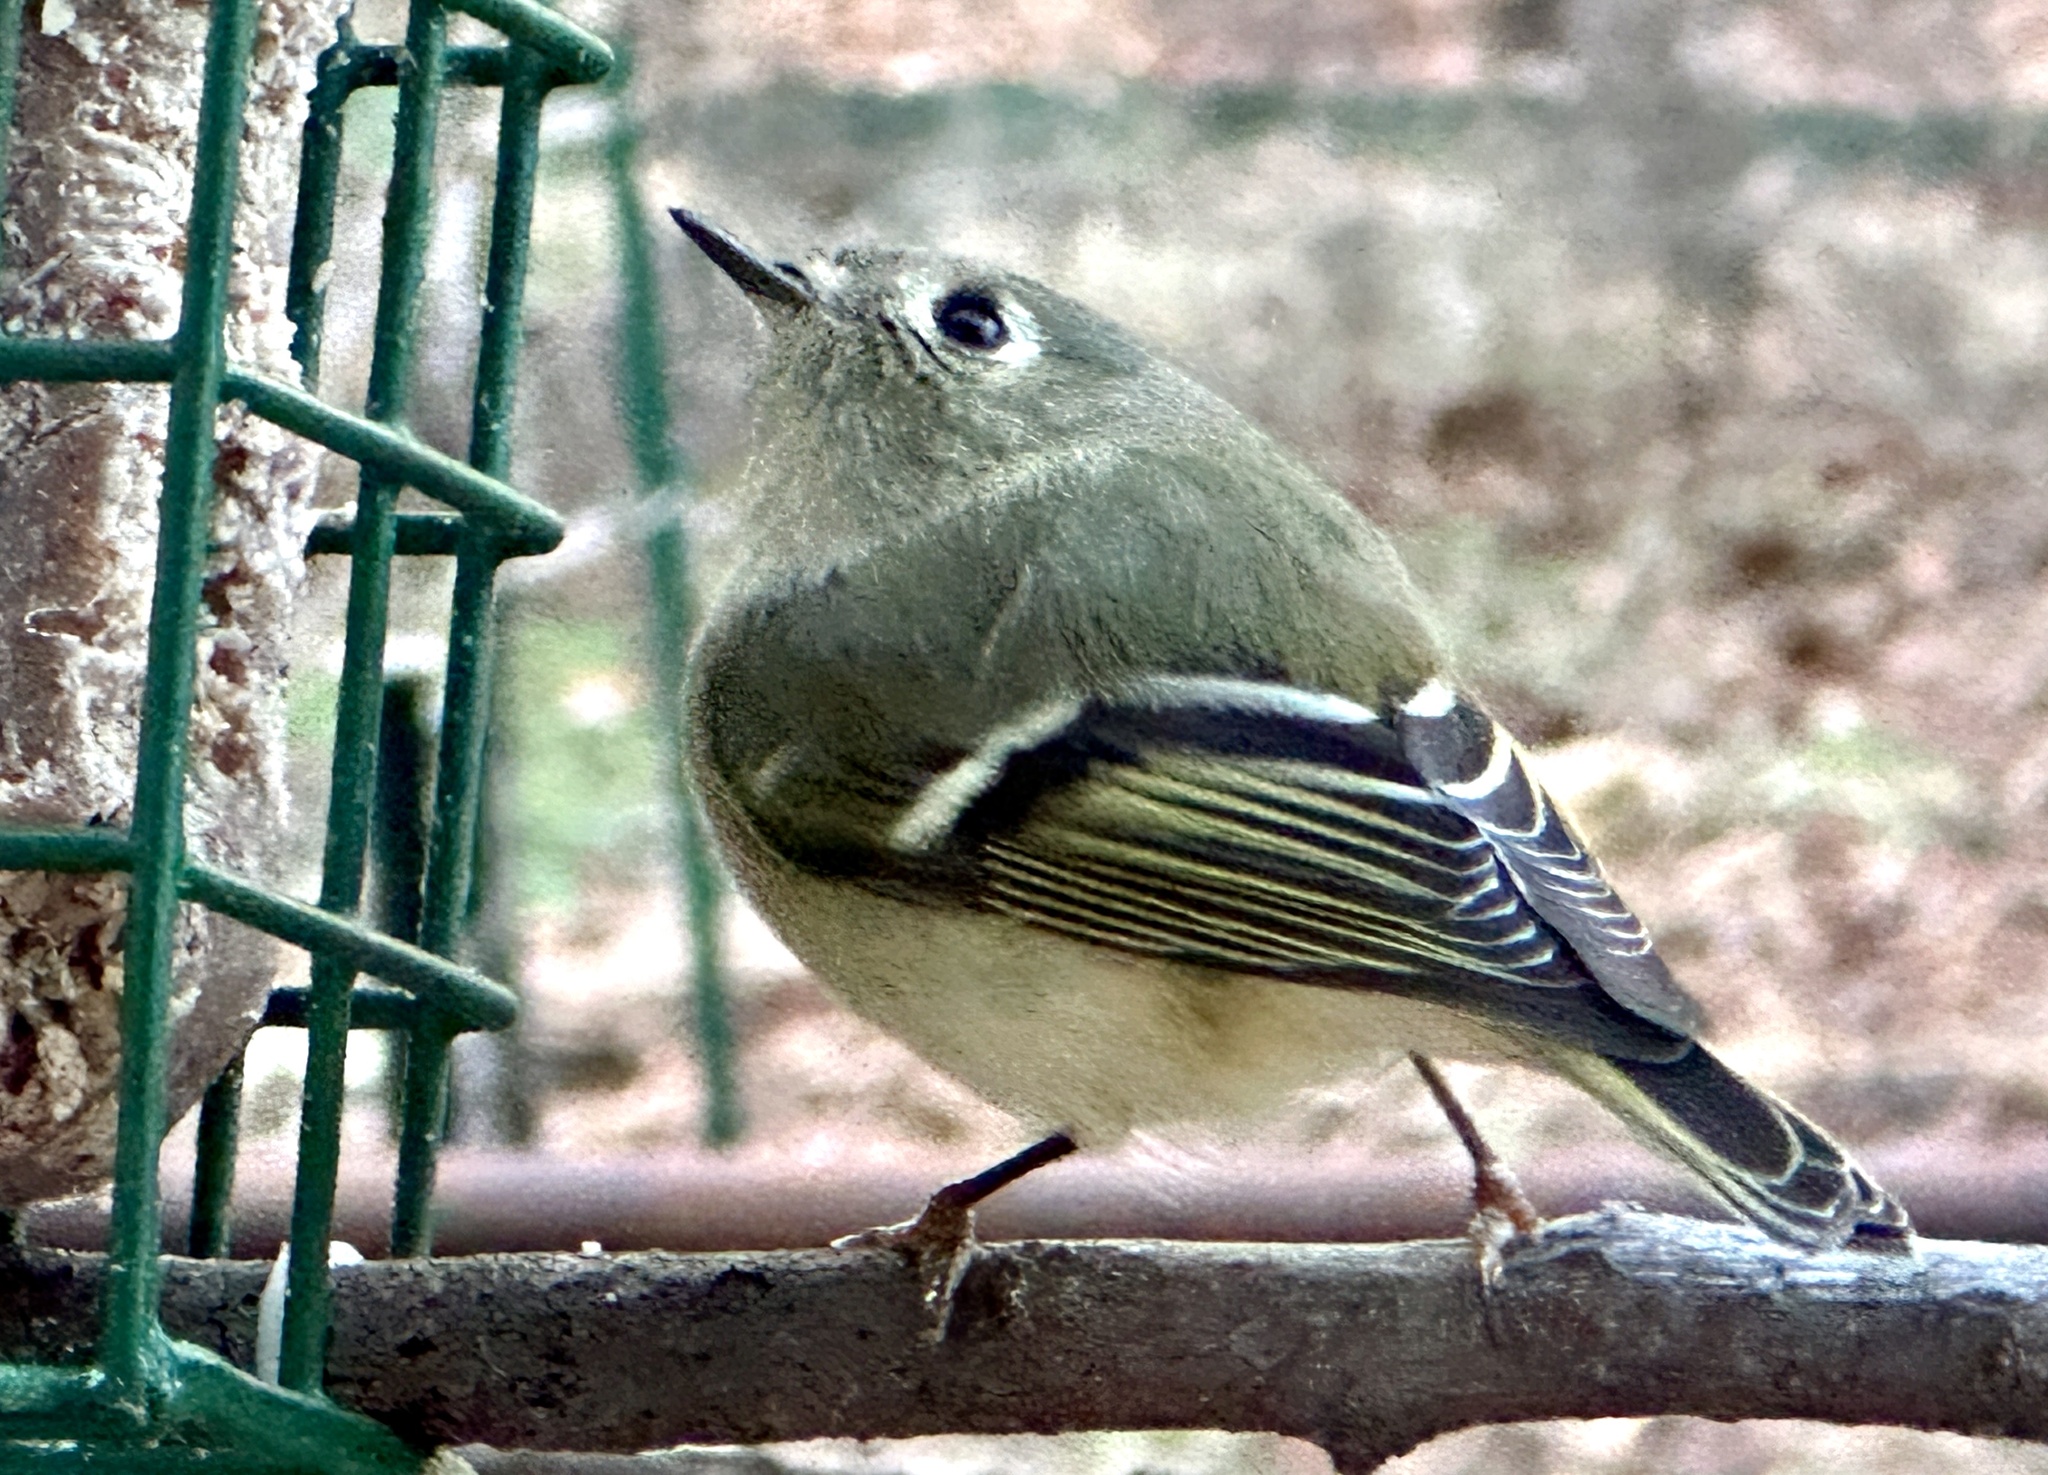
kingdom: Animalia
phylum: Chordata
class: Aves
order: Passeriformes
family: Regulidae
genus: Regulus
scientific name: Regulus calendula
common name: Ruby-crowned kinglet
